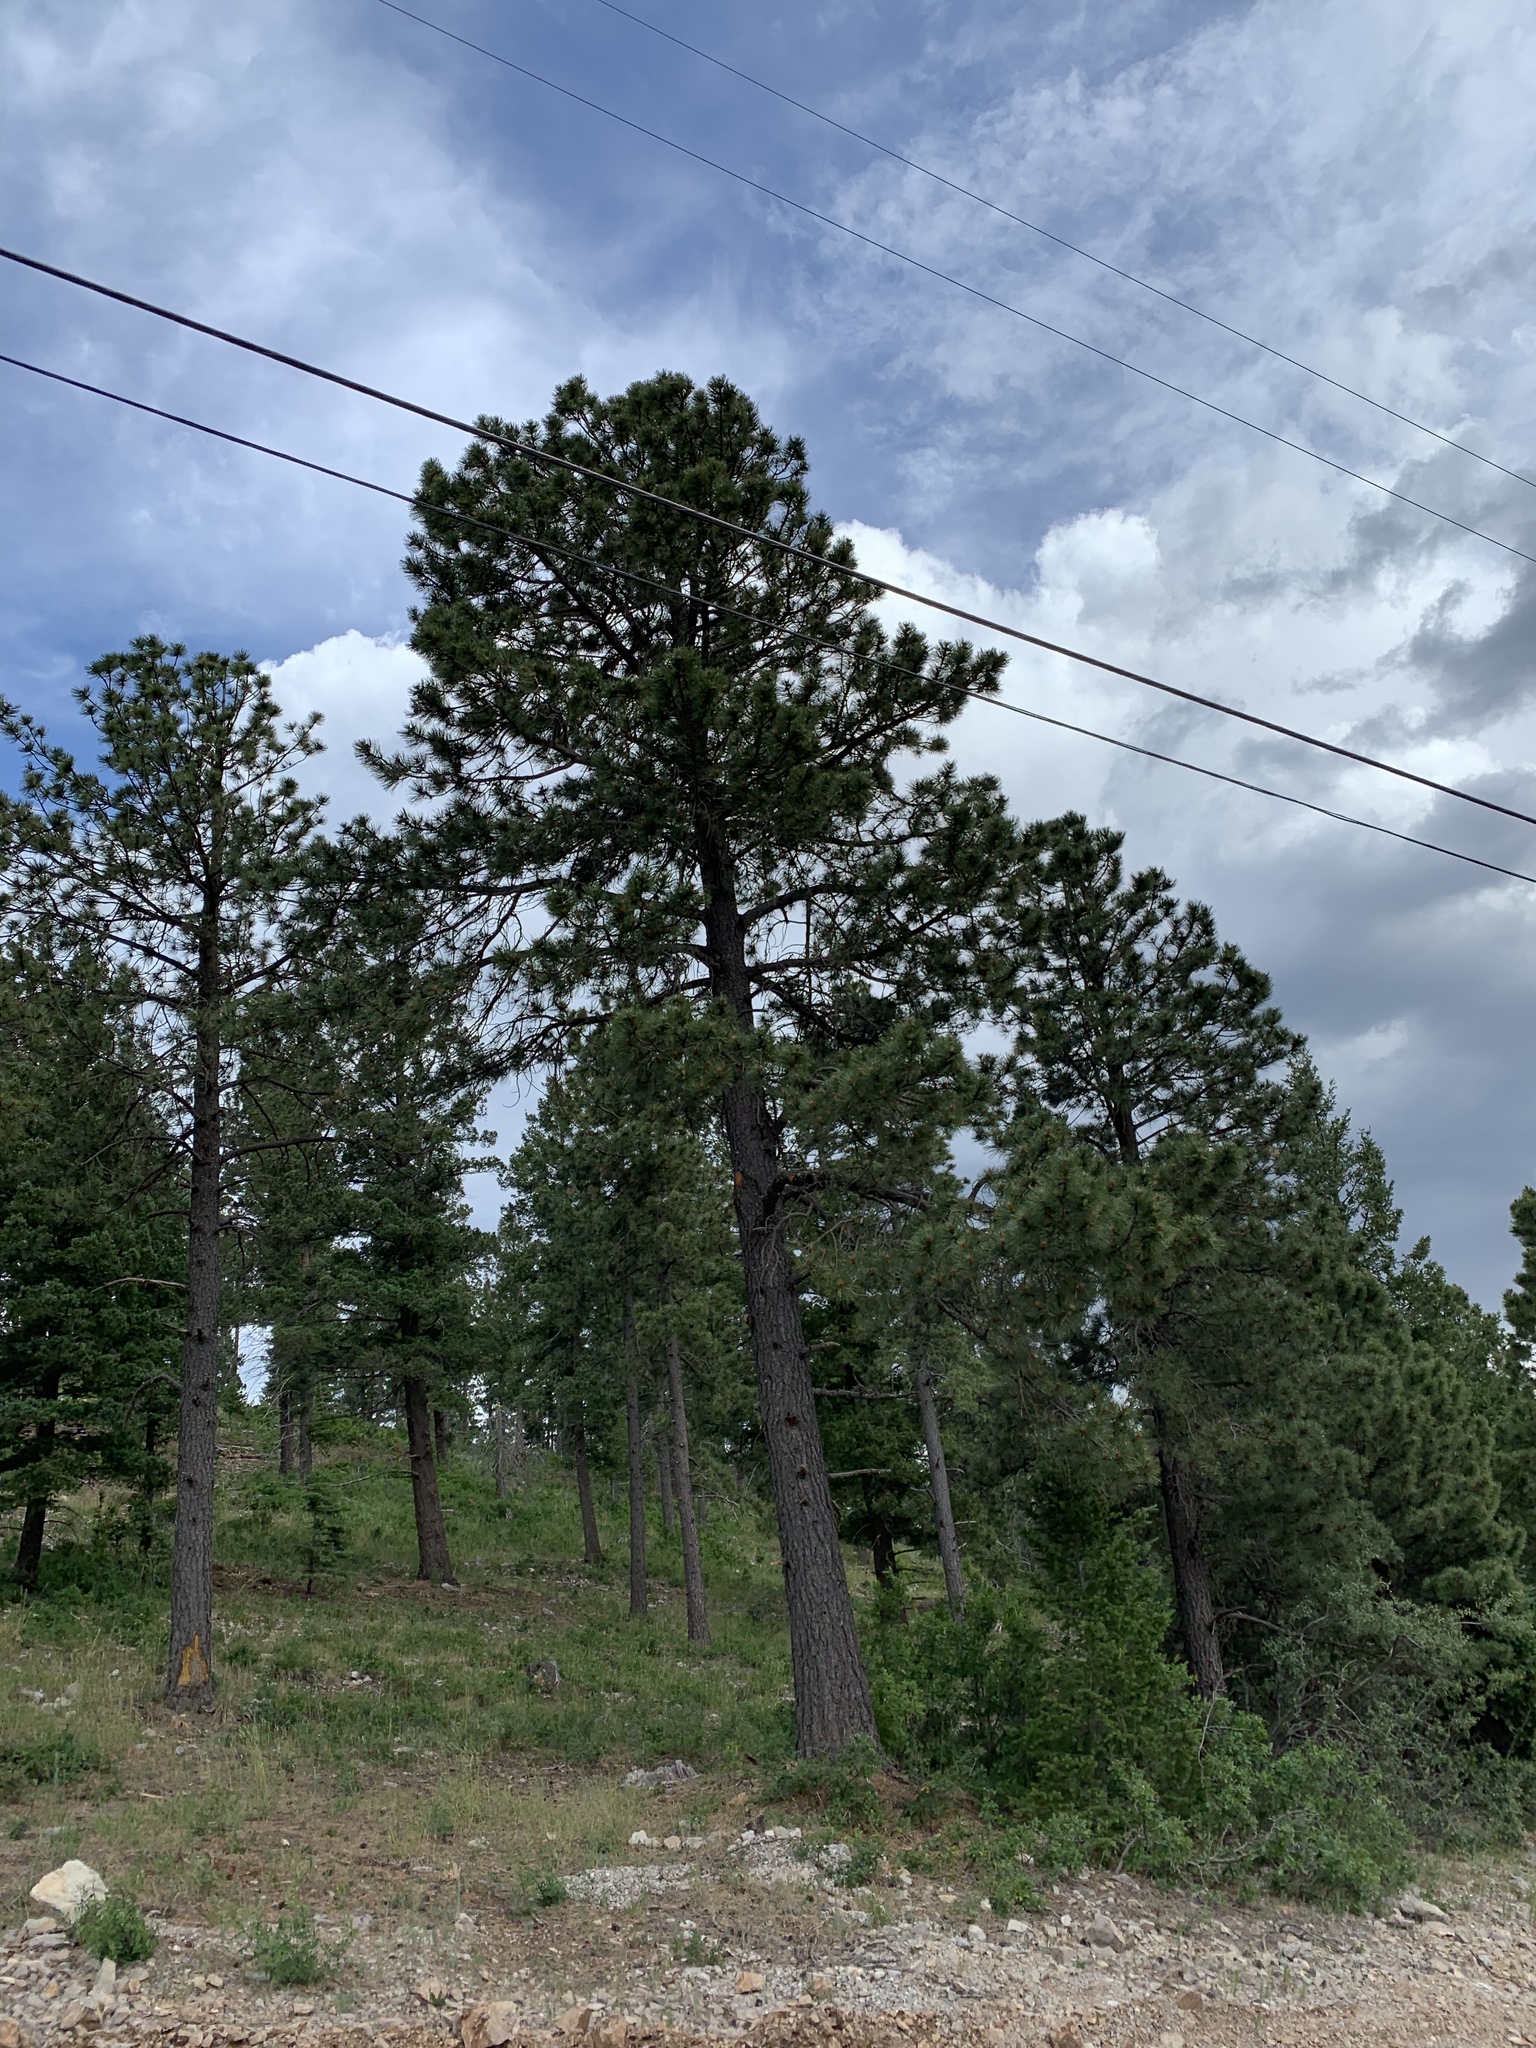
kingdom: Plantae
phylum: Tracheophyta
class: Pinopsida
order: Pinales
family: Pinaceae
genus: Pinus
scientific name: Pinus ponderosa
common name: Western yellow-pine
